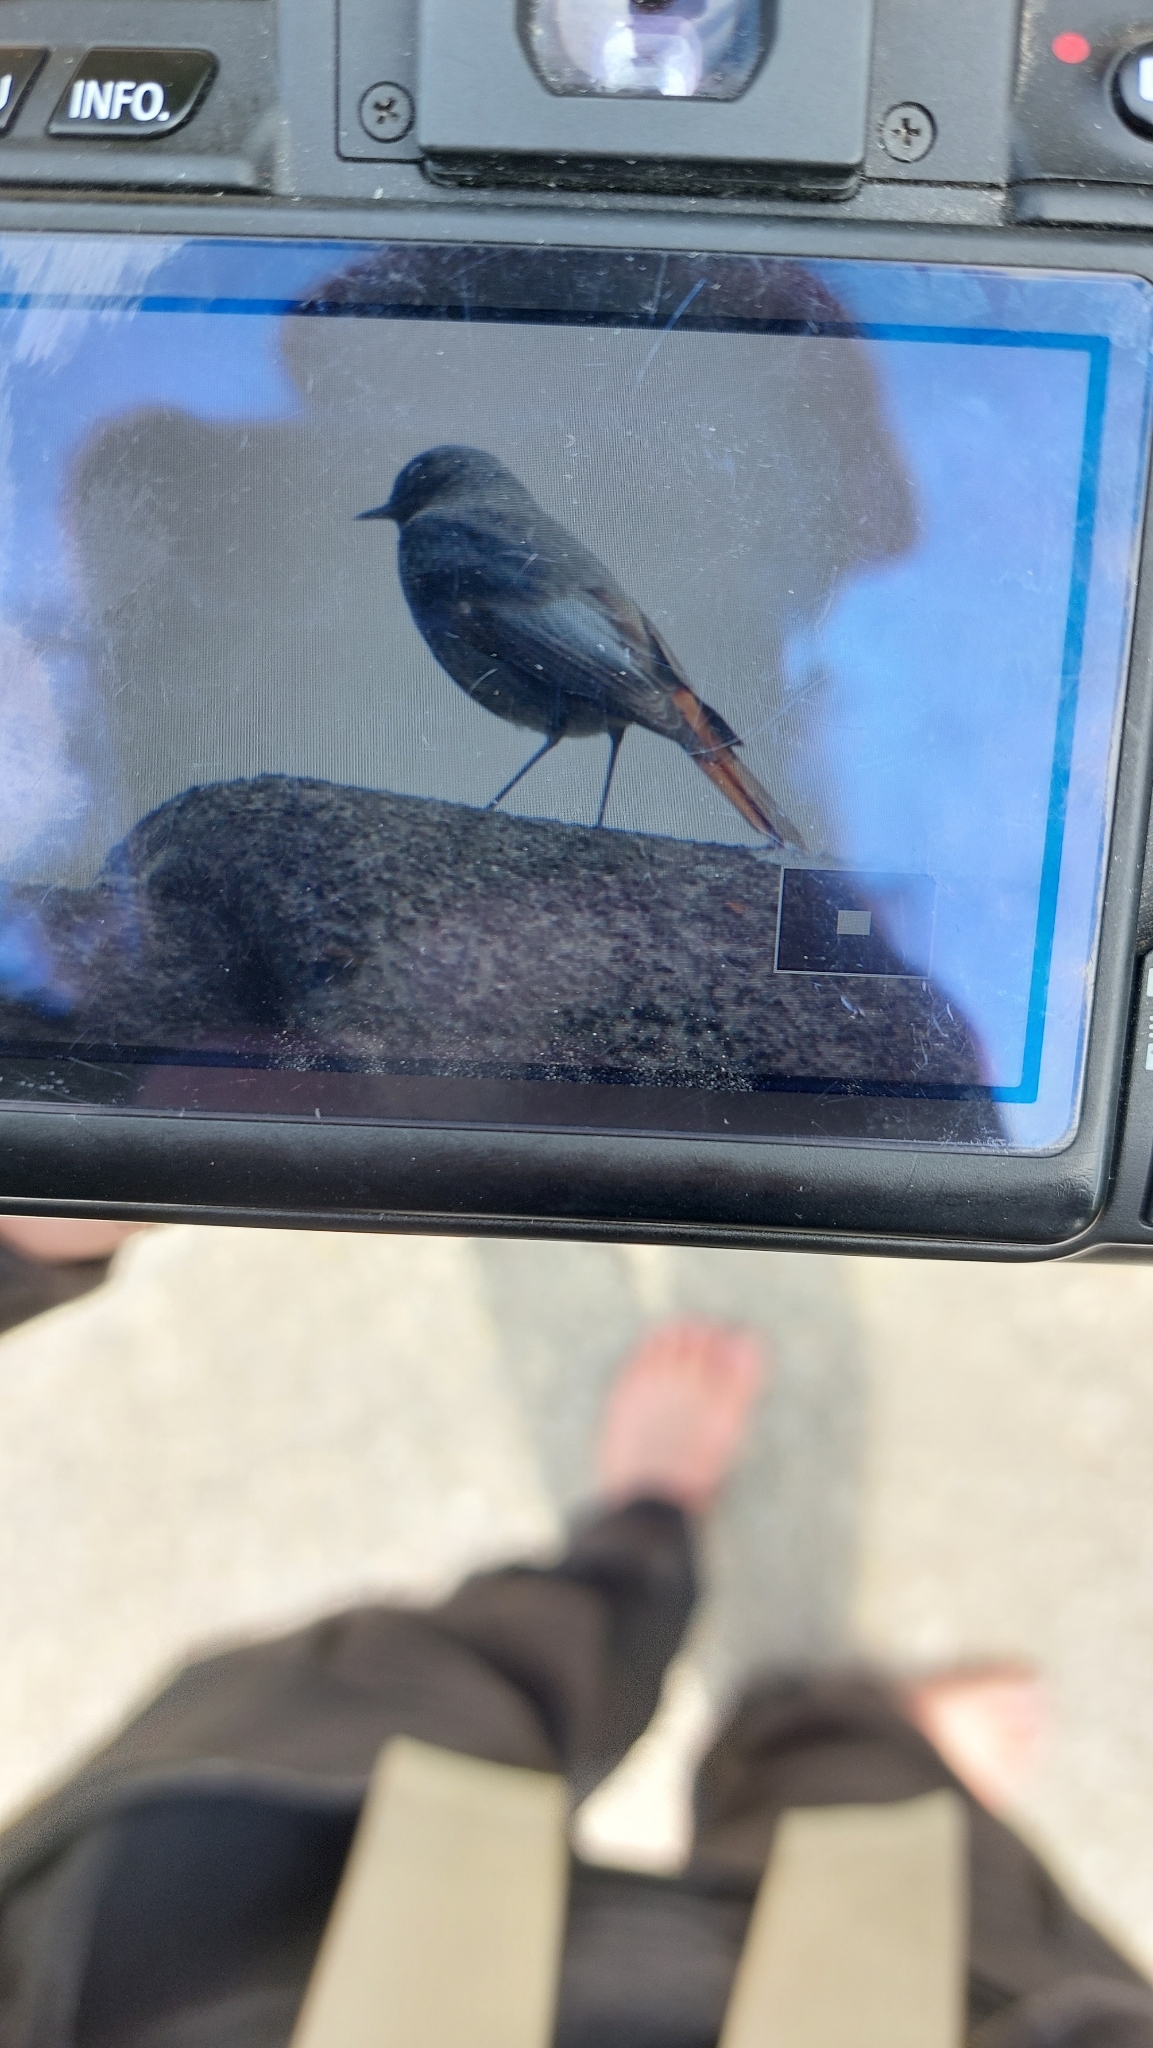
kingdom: Animalia
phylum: Chordata
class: Aves
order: Passeriformes
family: Muscicapidae
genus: Phoenicurus
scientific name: Phoenicurus ochruros
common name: Black redstart
